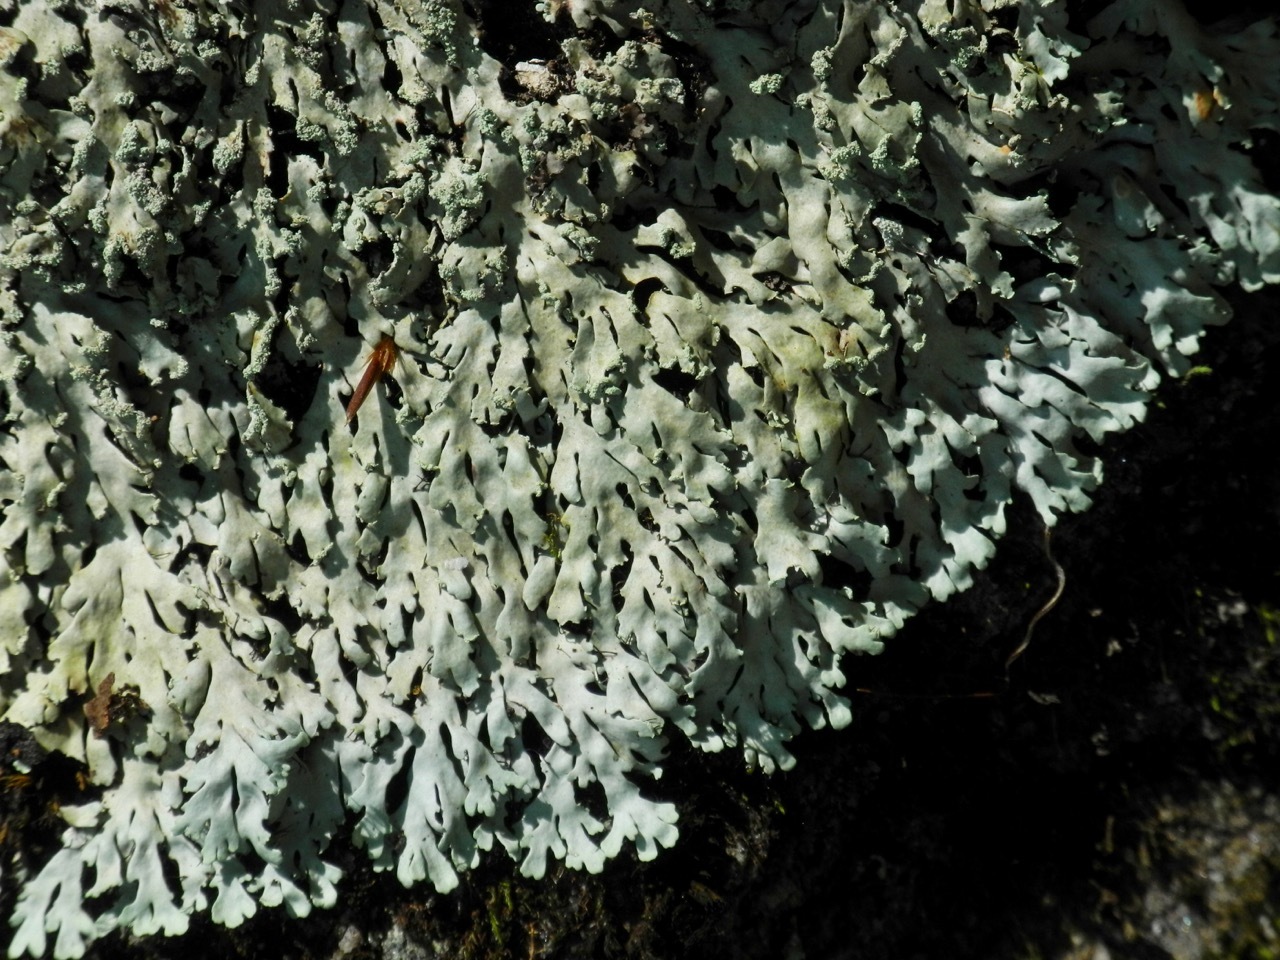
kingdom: Fungi
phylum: Ascomycota
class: Lecanoromycetes
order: Caliciales
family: Physciaceae
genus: Polyblastidium
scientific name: Polyblastidium squamulosum
